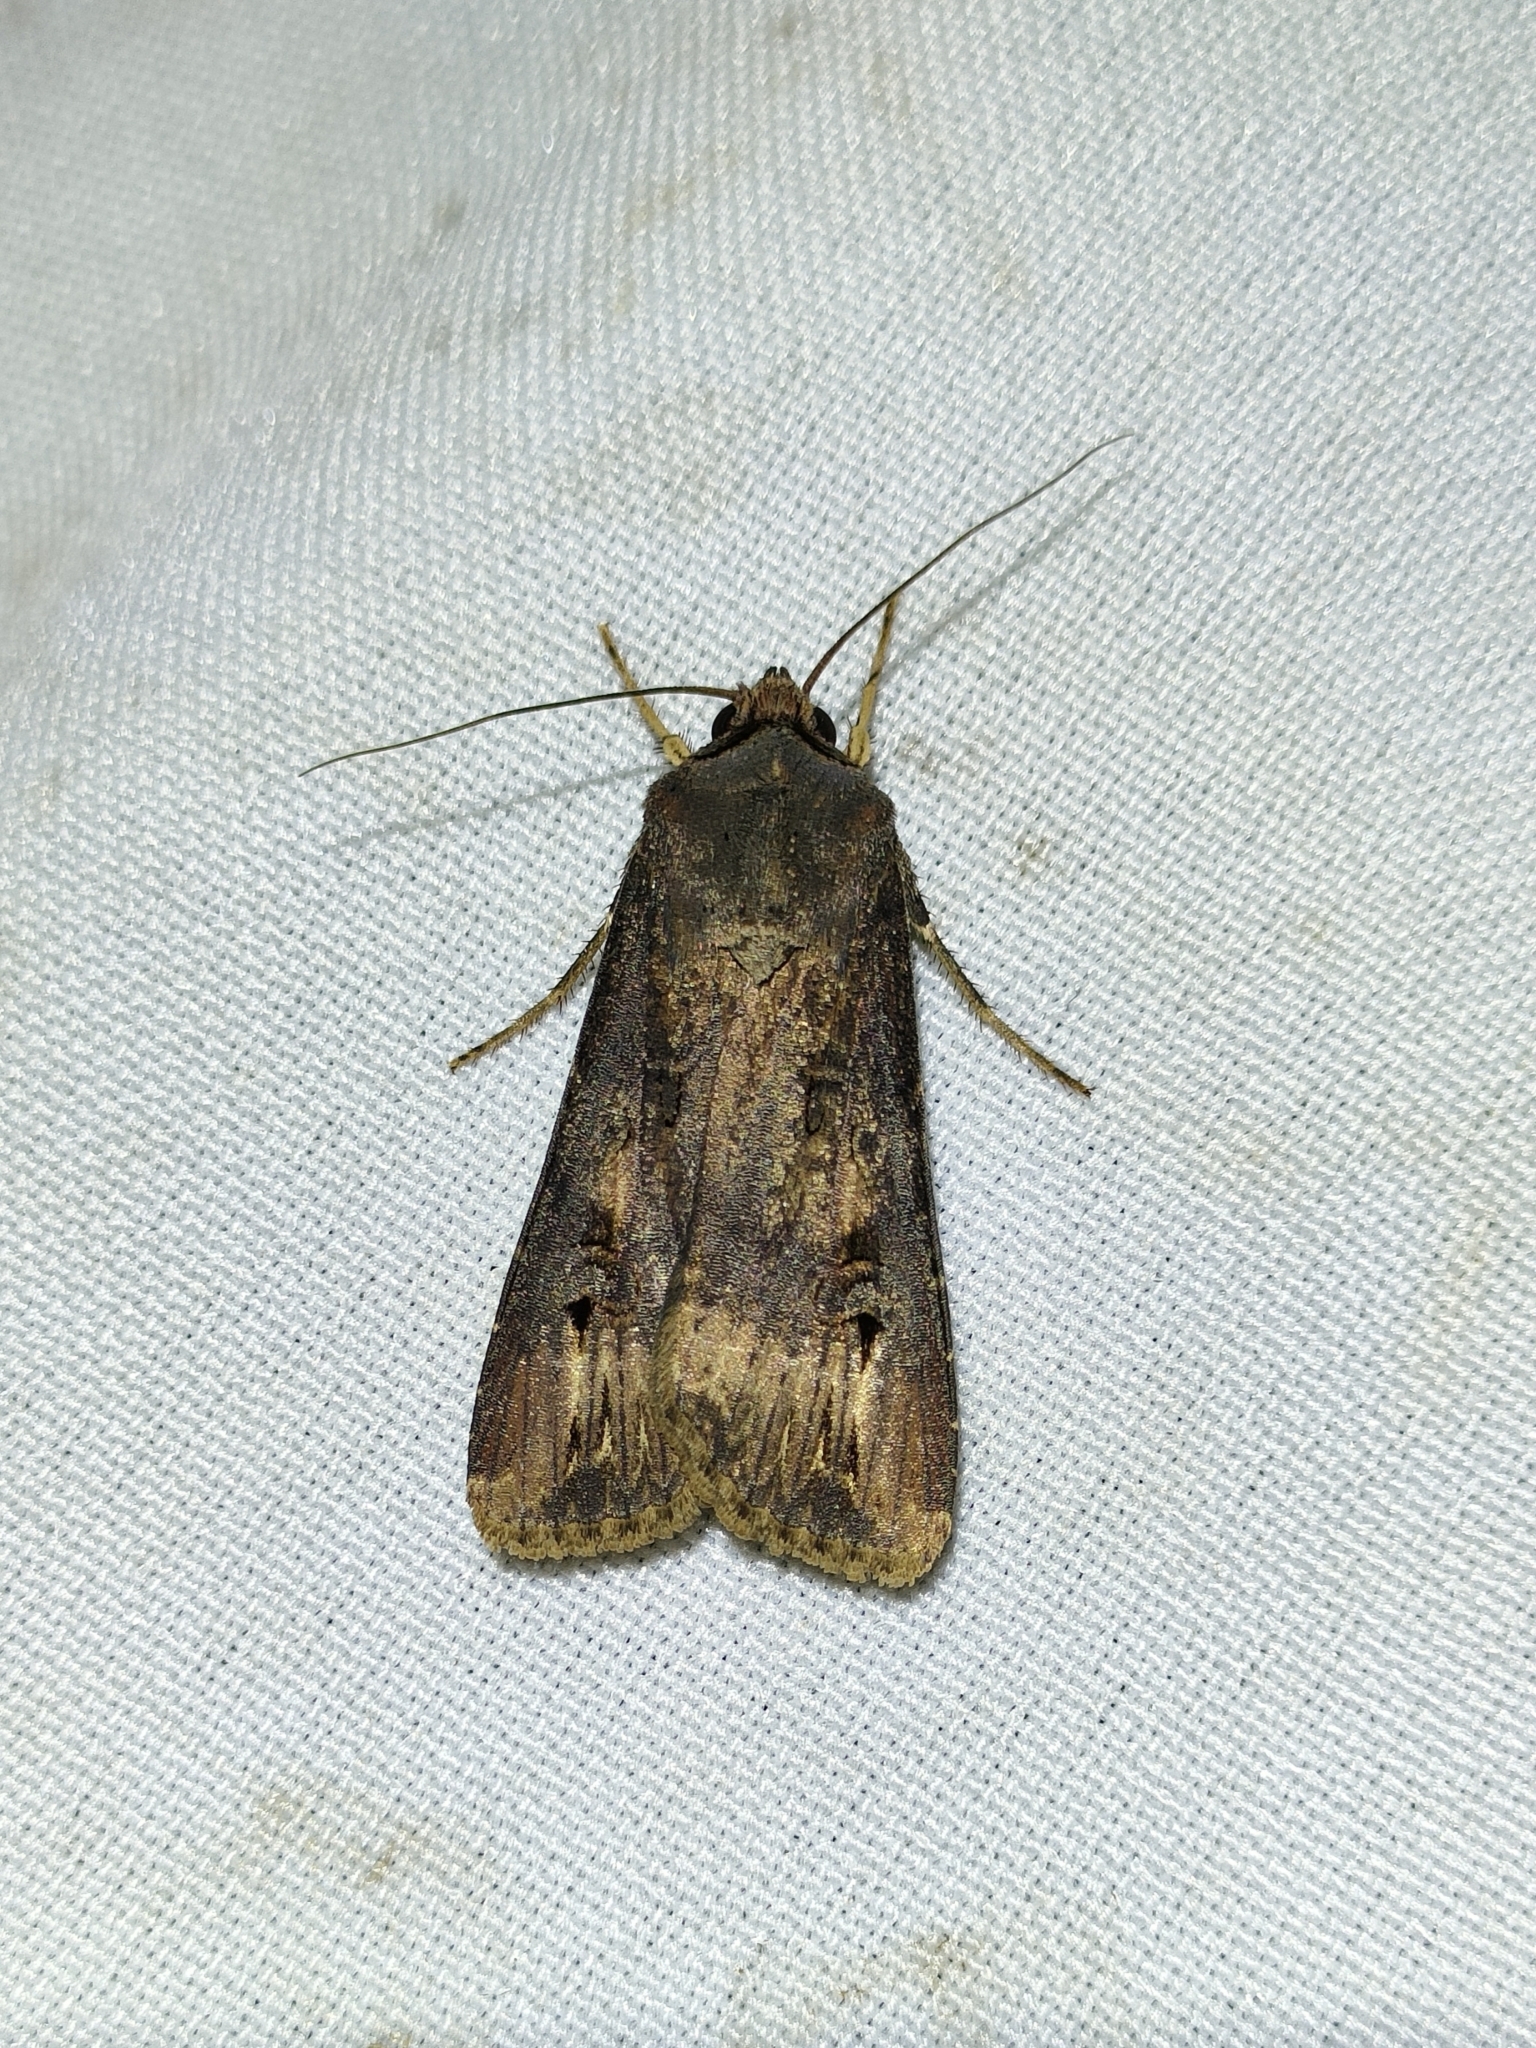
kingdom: Animalia
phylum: Arthropoda
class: Insecta
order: Lepidoptera
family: Noctuidae
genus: Agrotis
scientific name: Agrotis ipsilon
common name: Dark sword-grass
